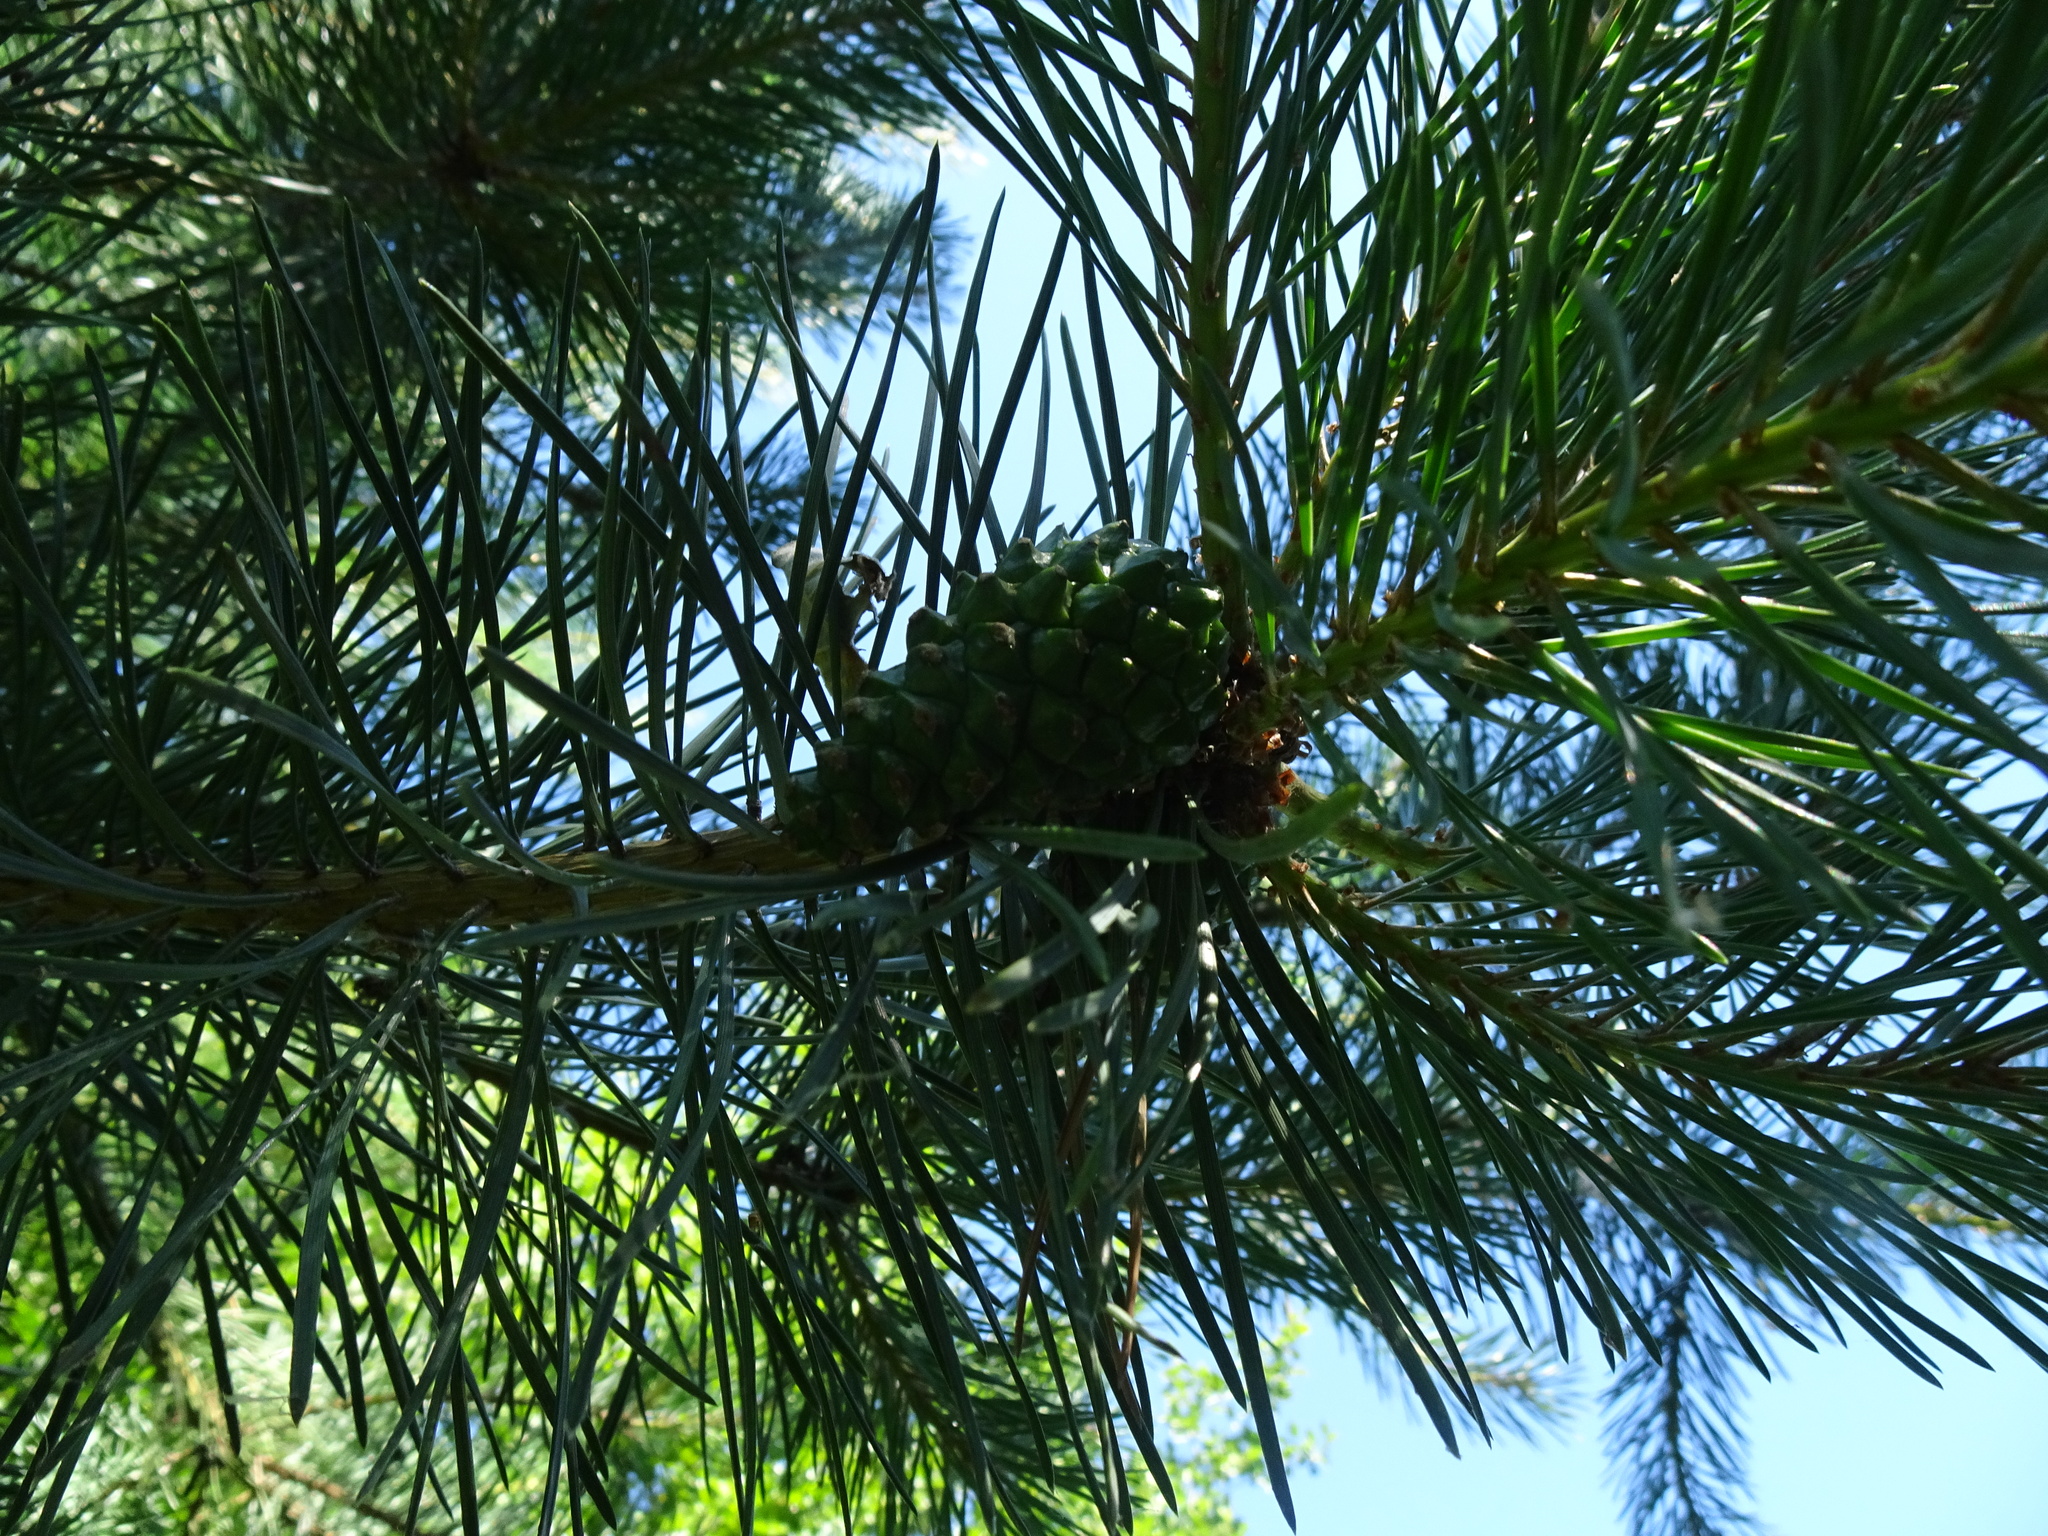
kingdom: Plantae
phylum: Tracheophyta
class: Pinopsida
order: Pinales
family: Pinaceae
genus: Pinus
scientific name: Pinus sylvestris
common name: Scots pine
